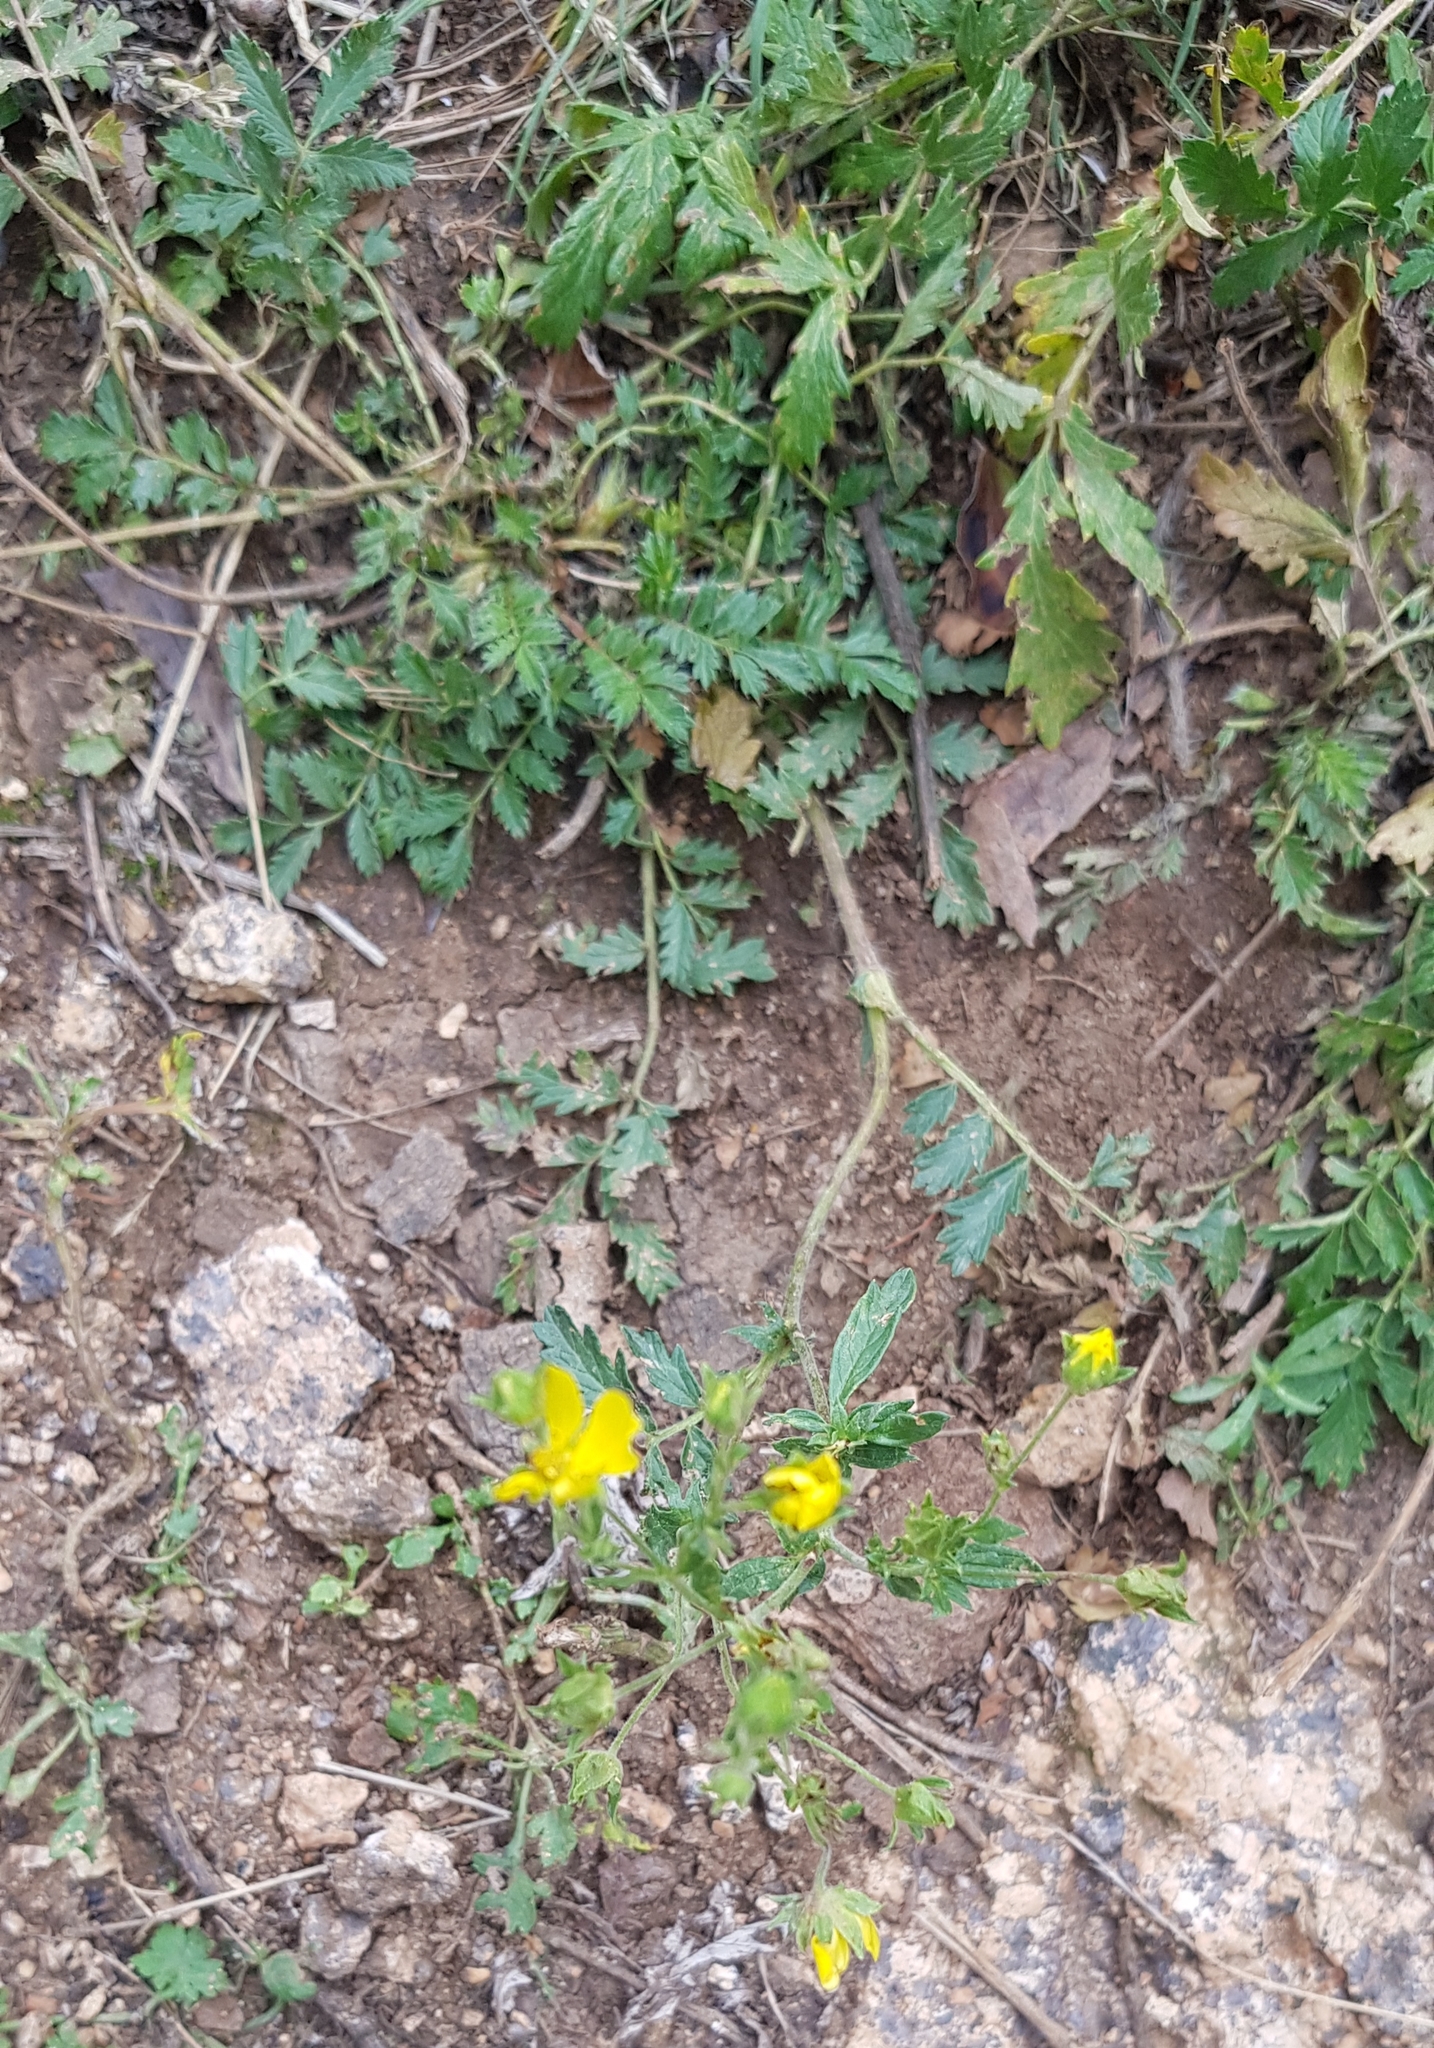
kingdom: Plantae
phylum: Tracheophyta
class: Magnoliopsida
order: Rosales
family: Rosaceae
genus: Potentilla
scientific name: Potentilla supina
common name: Prostrate cinquefoil
